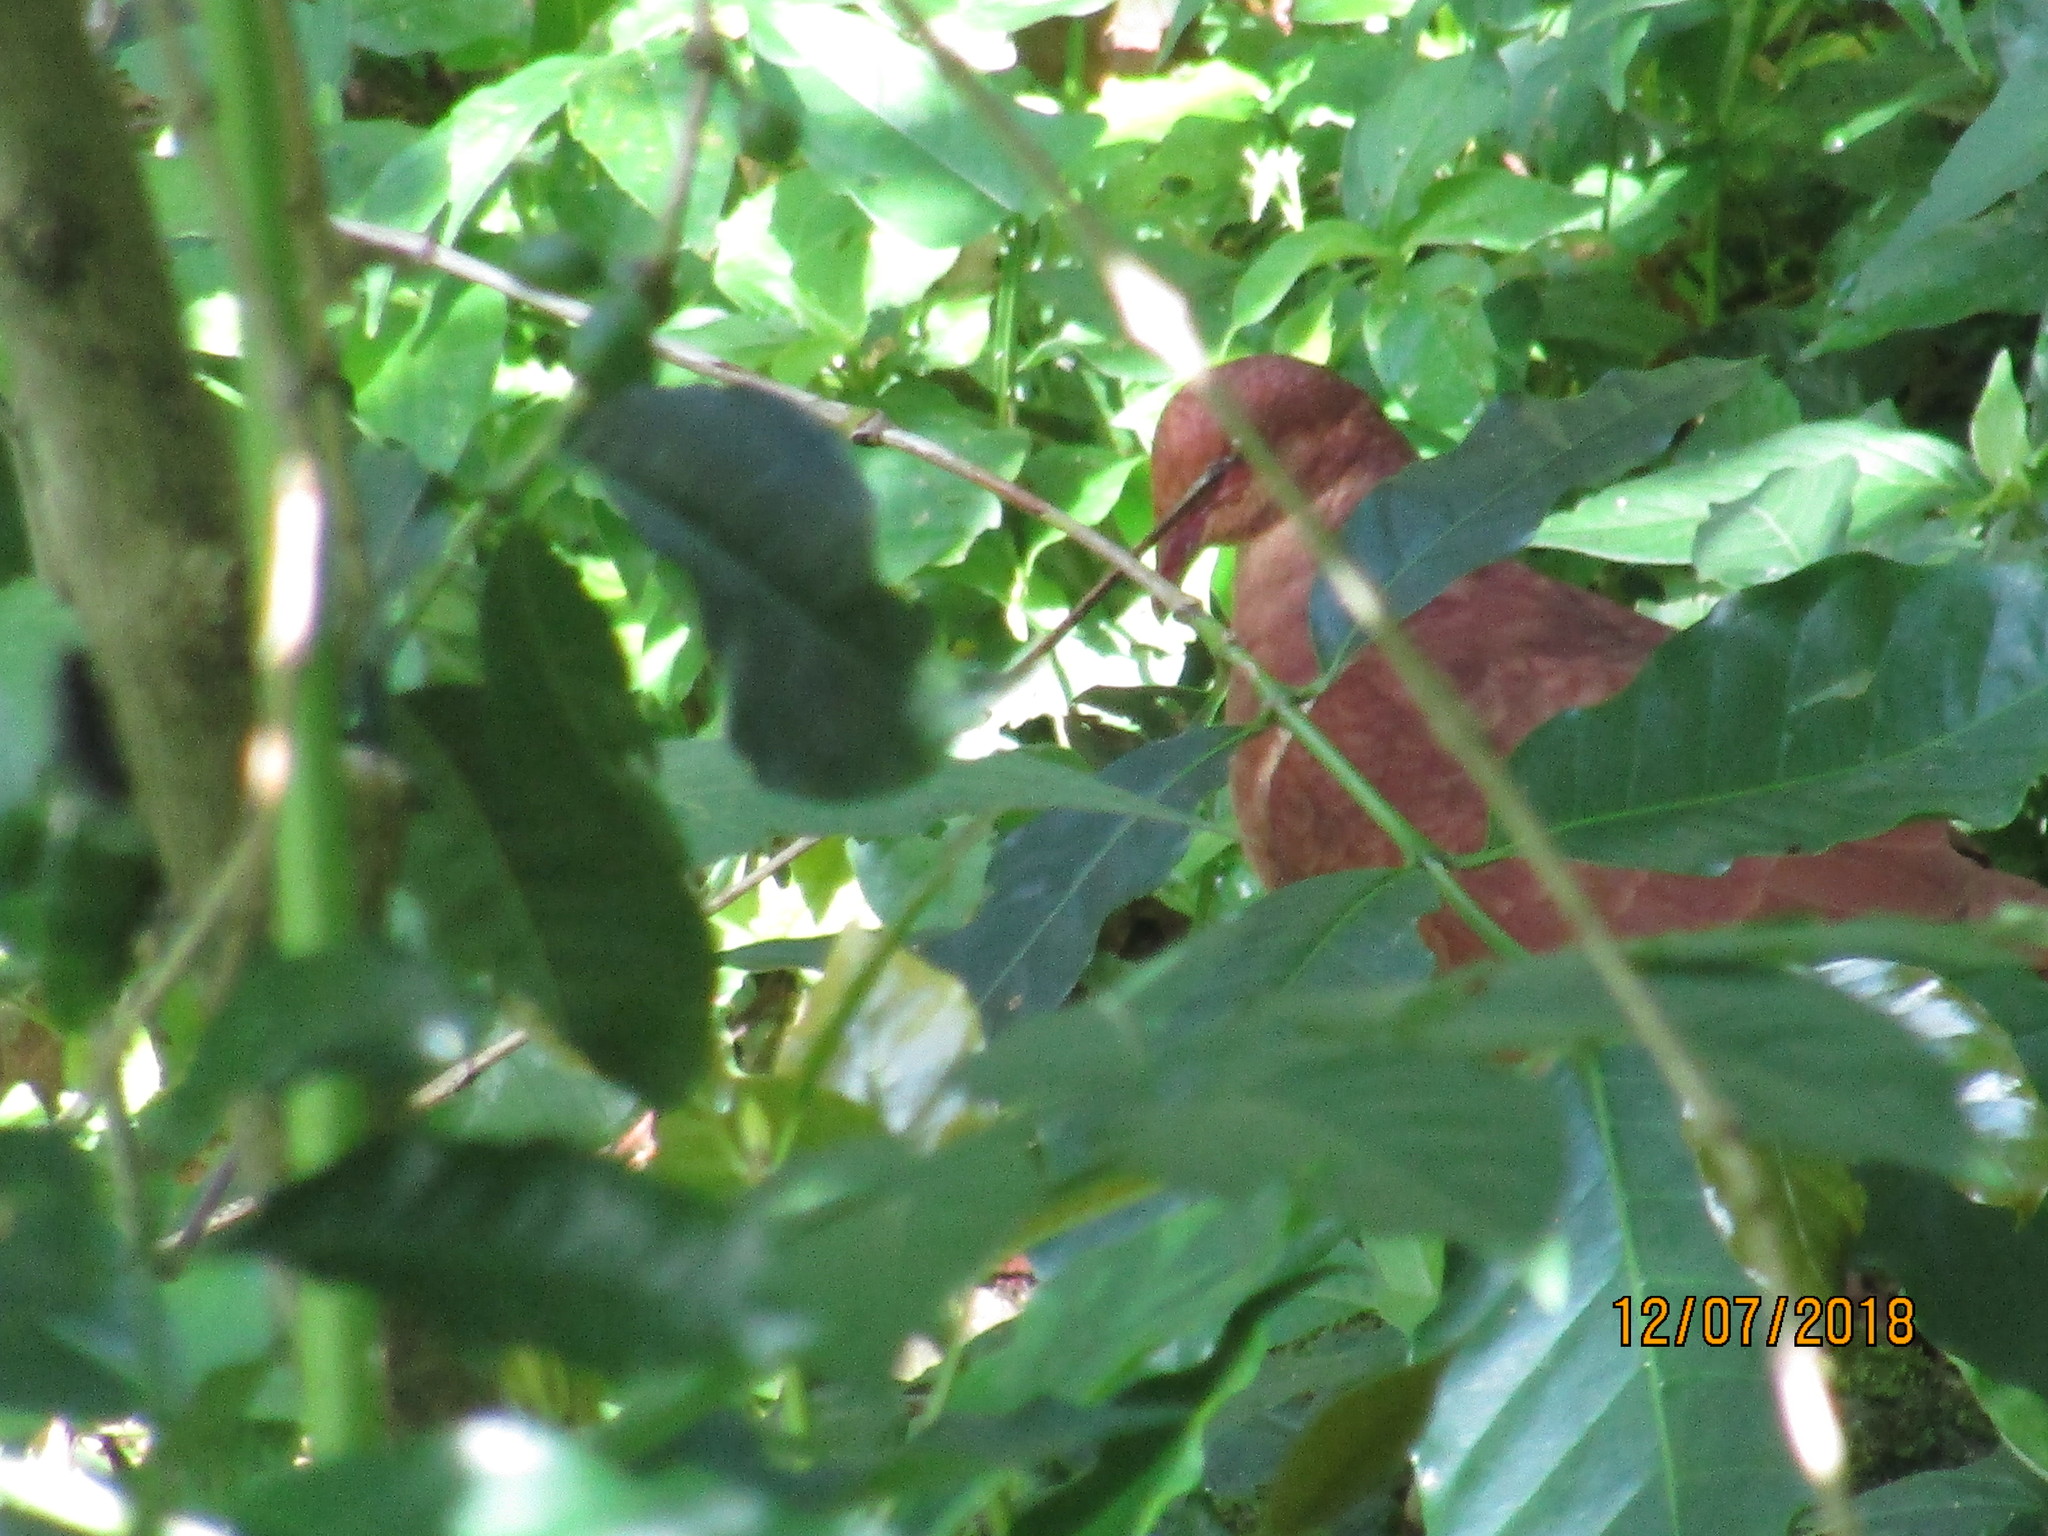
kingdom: Animalia
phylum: Chordata
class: Aves
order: Columbiformes
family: Columbidae
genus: Geotrygon
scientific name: Geotrygon montana
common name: Ruddy quail-dove
